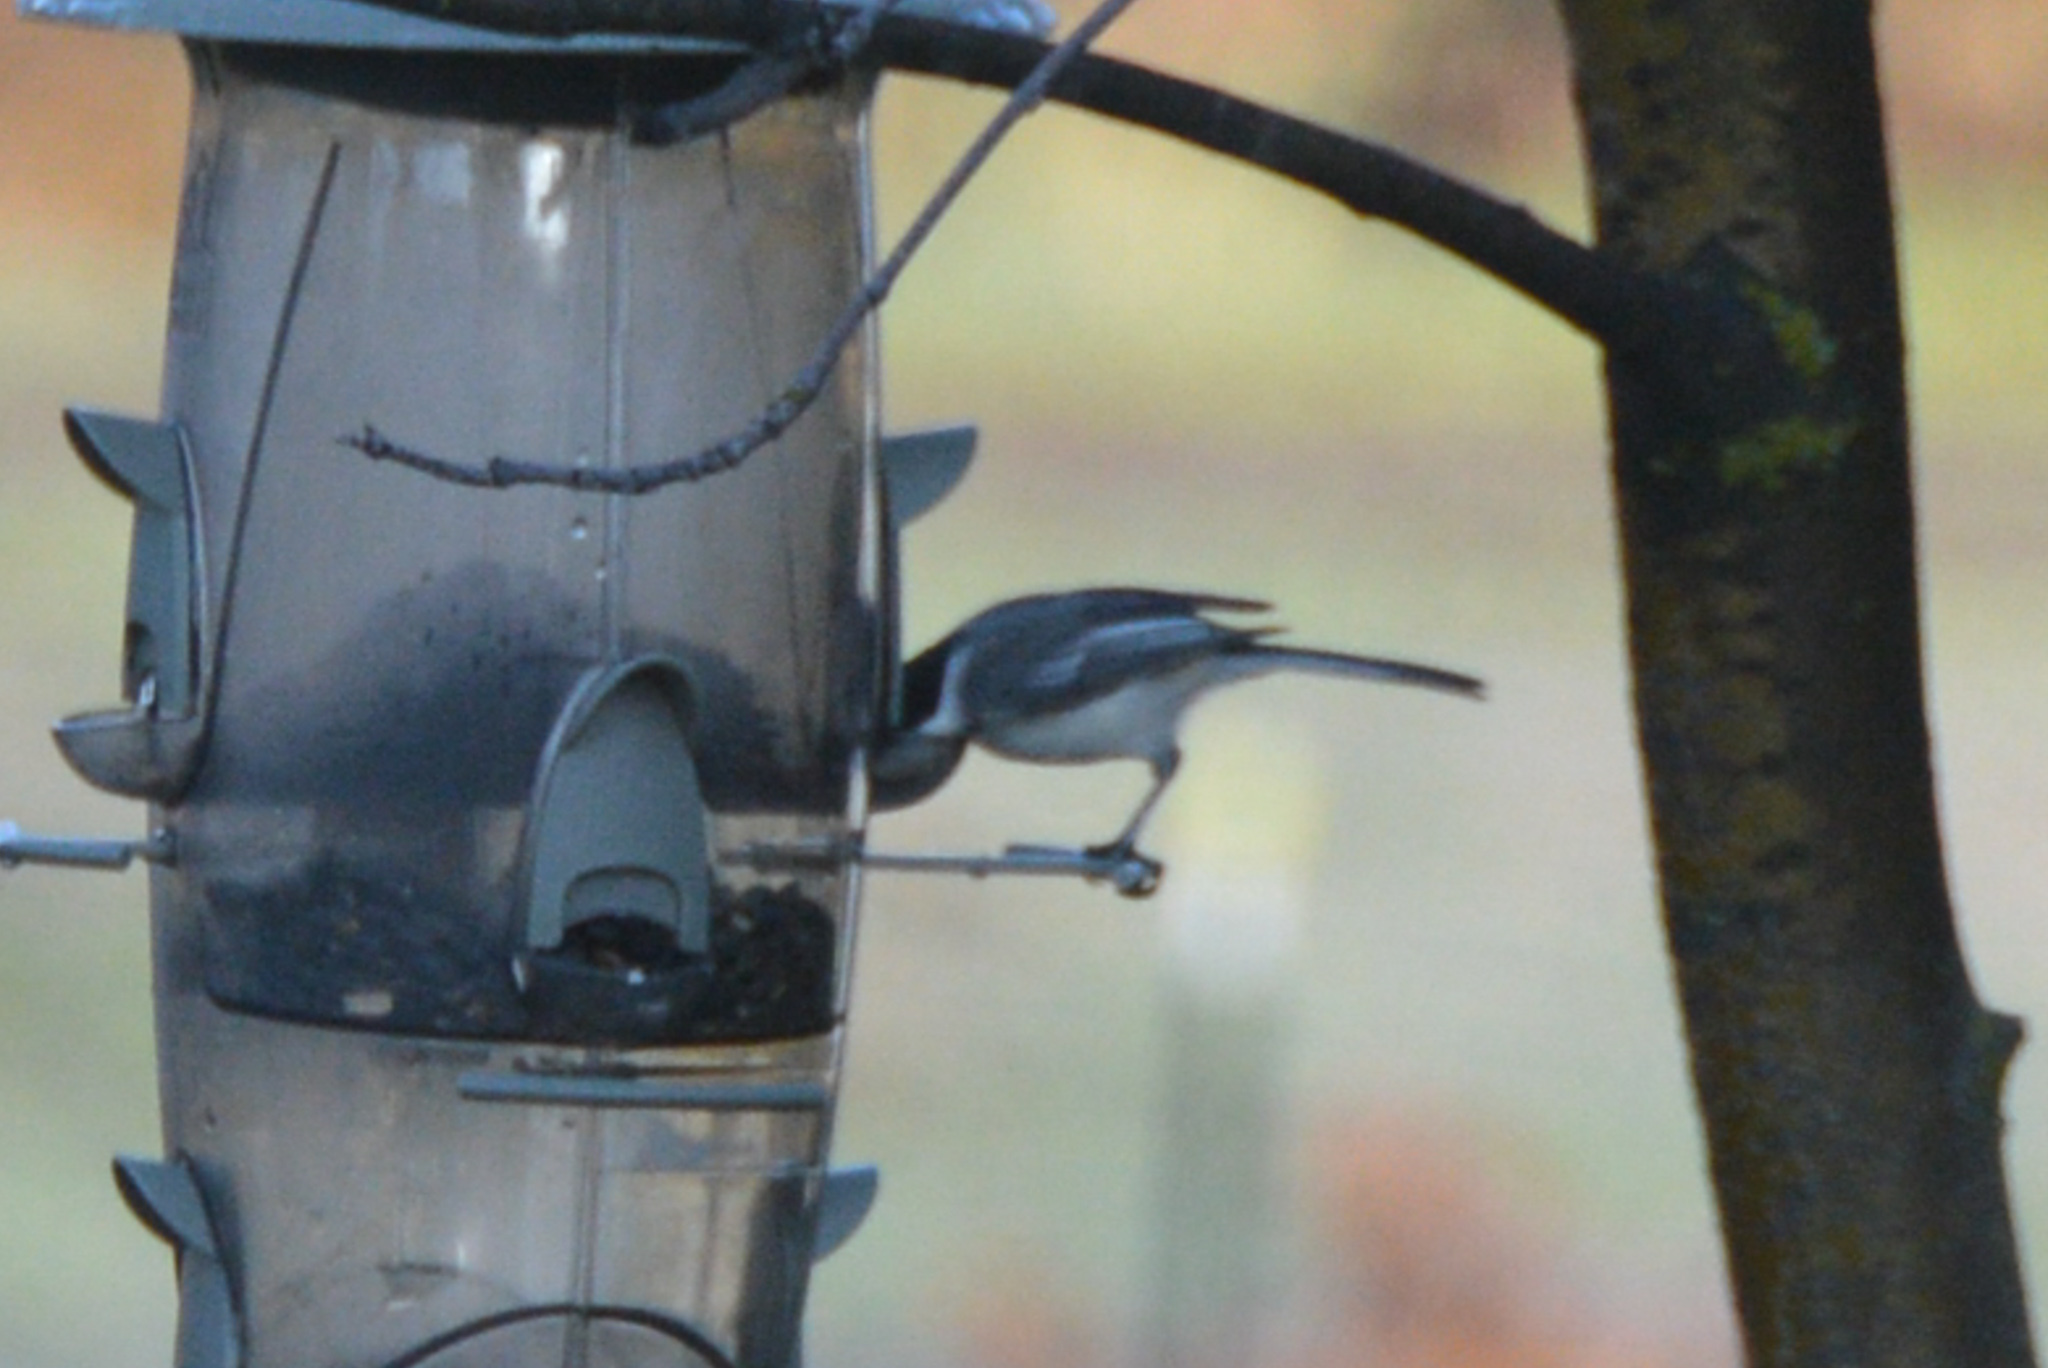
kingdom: Animalia
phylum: Chordata
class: Aves
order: Passeriformes
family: Paridae
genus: Poecile
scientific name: Poecile atricapillus
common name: Black-capped chickadee
